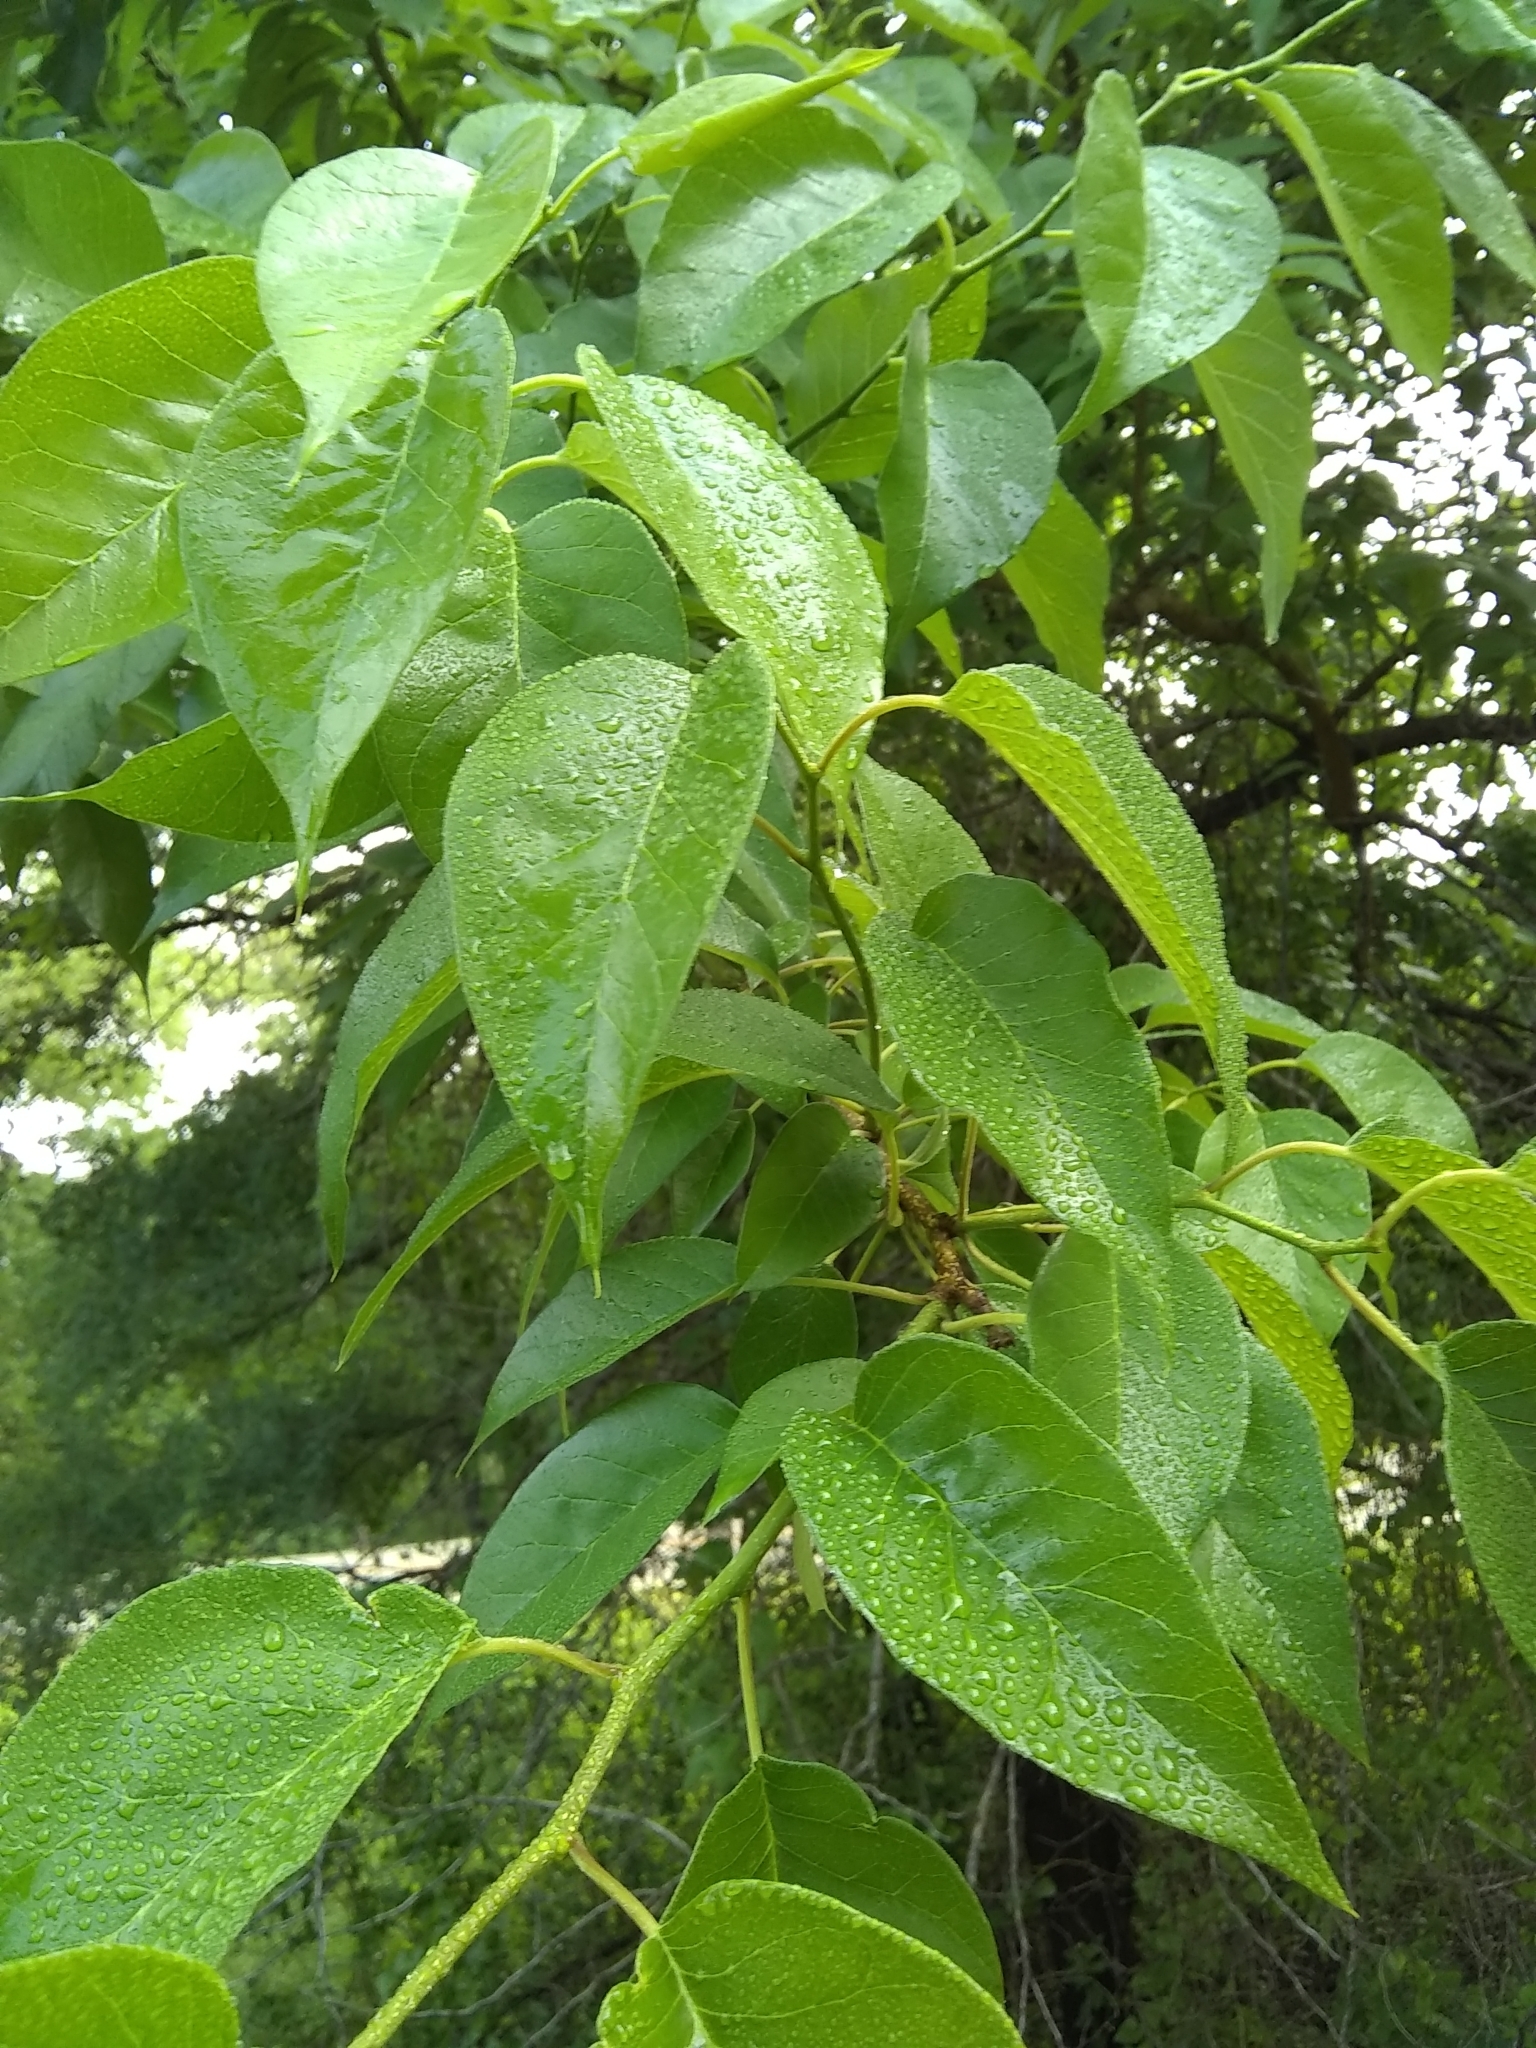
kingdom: Plantae
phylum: Tracheophyta
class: Magnoliopsida
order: Rosales
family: Moraceae
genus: Maclura
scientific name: Maclura pomifera
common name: Osage-orange
